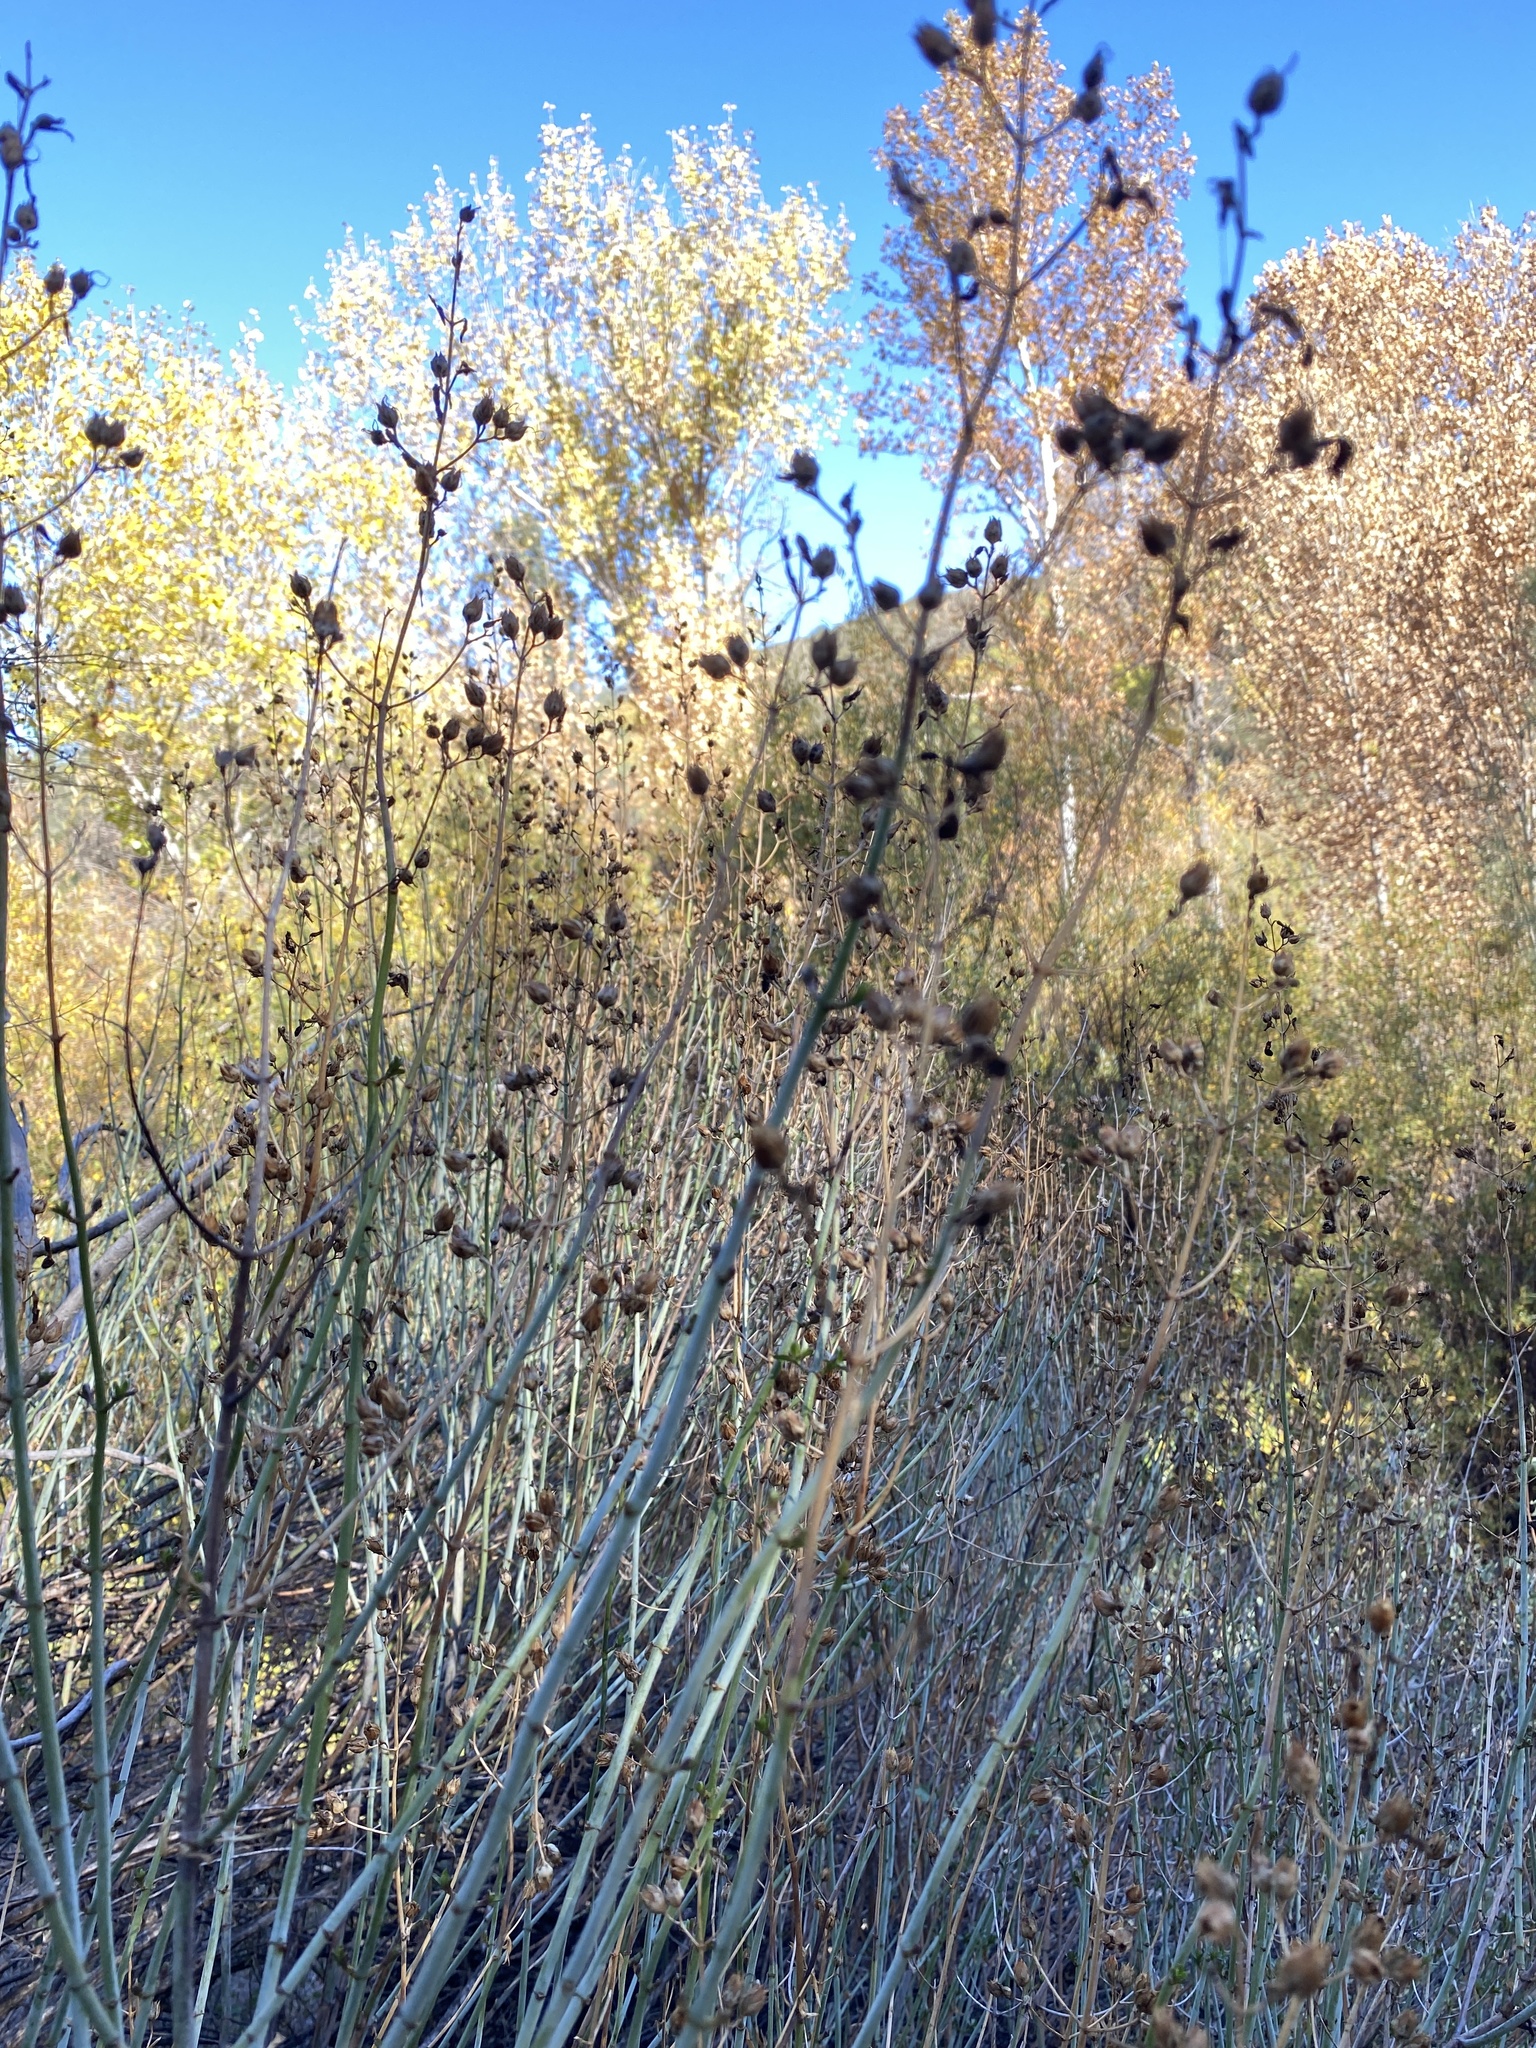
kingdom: Plantae
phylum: Tracheophyta
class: Magnoliopsida
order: Lamiales
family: Plantaginaceae
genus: Keckiella
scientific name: Keckiella breviflora
